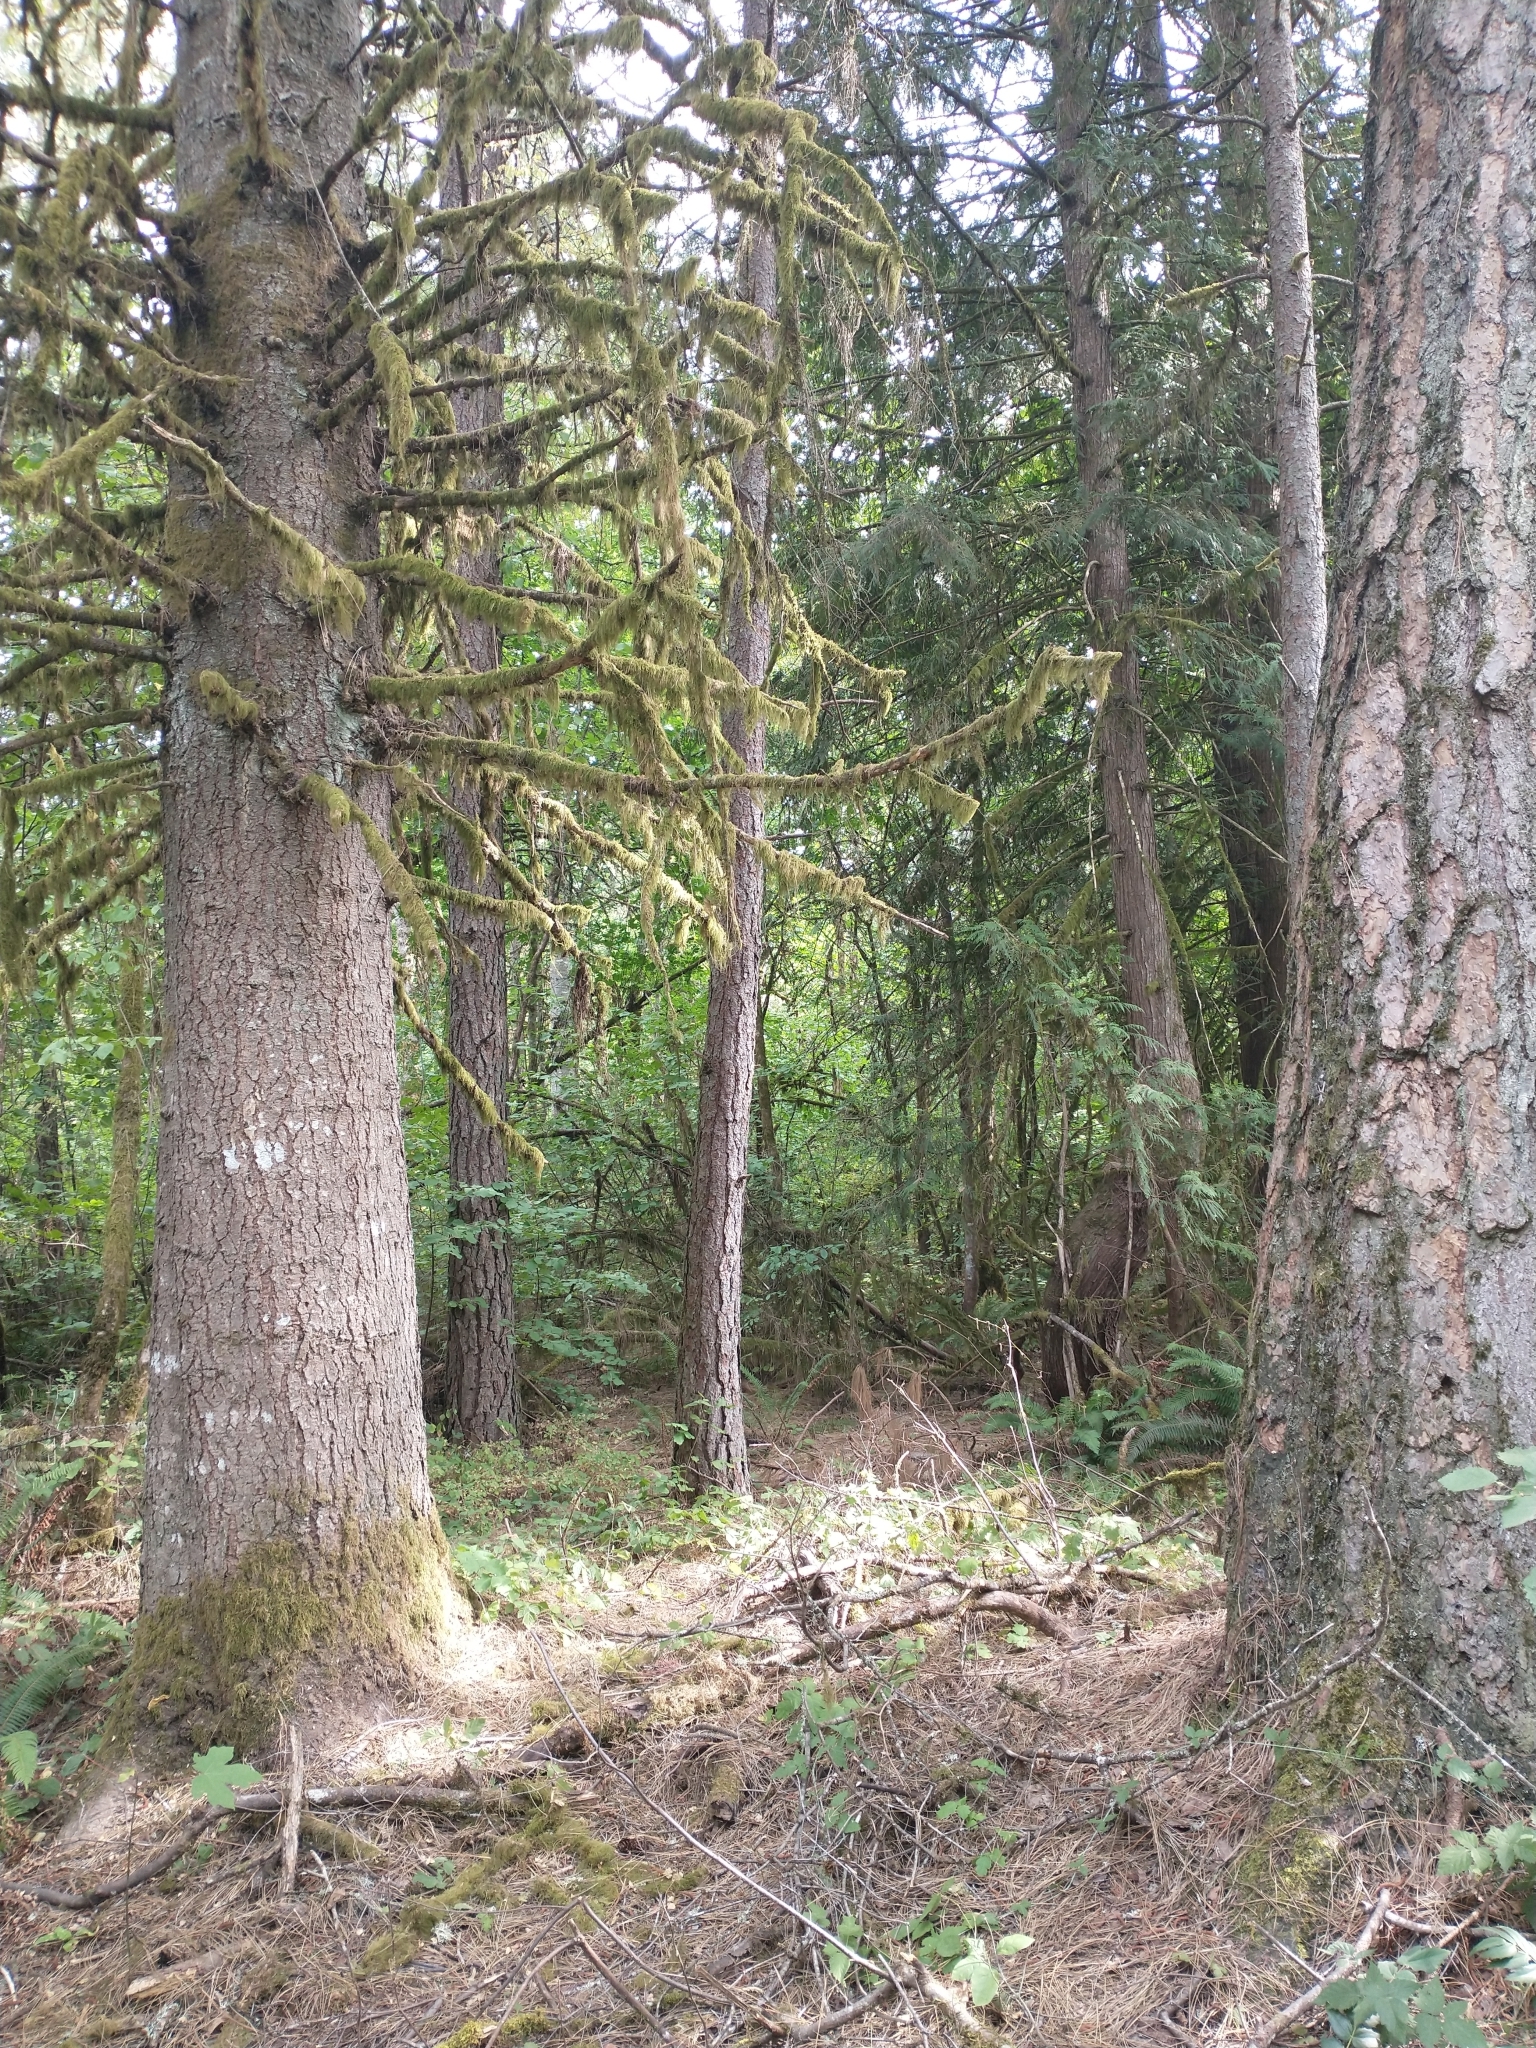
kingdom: Plantae
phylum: Tracheophyta
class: Pinopsida
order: Pinales
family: Pinaceae
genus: Abies
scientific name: Abies grandis
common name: Giant fir
